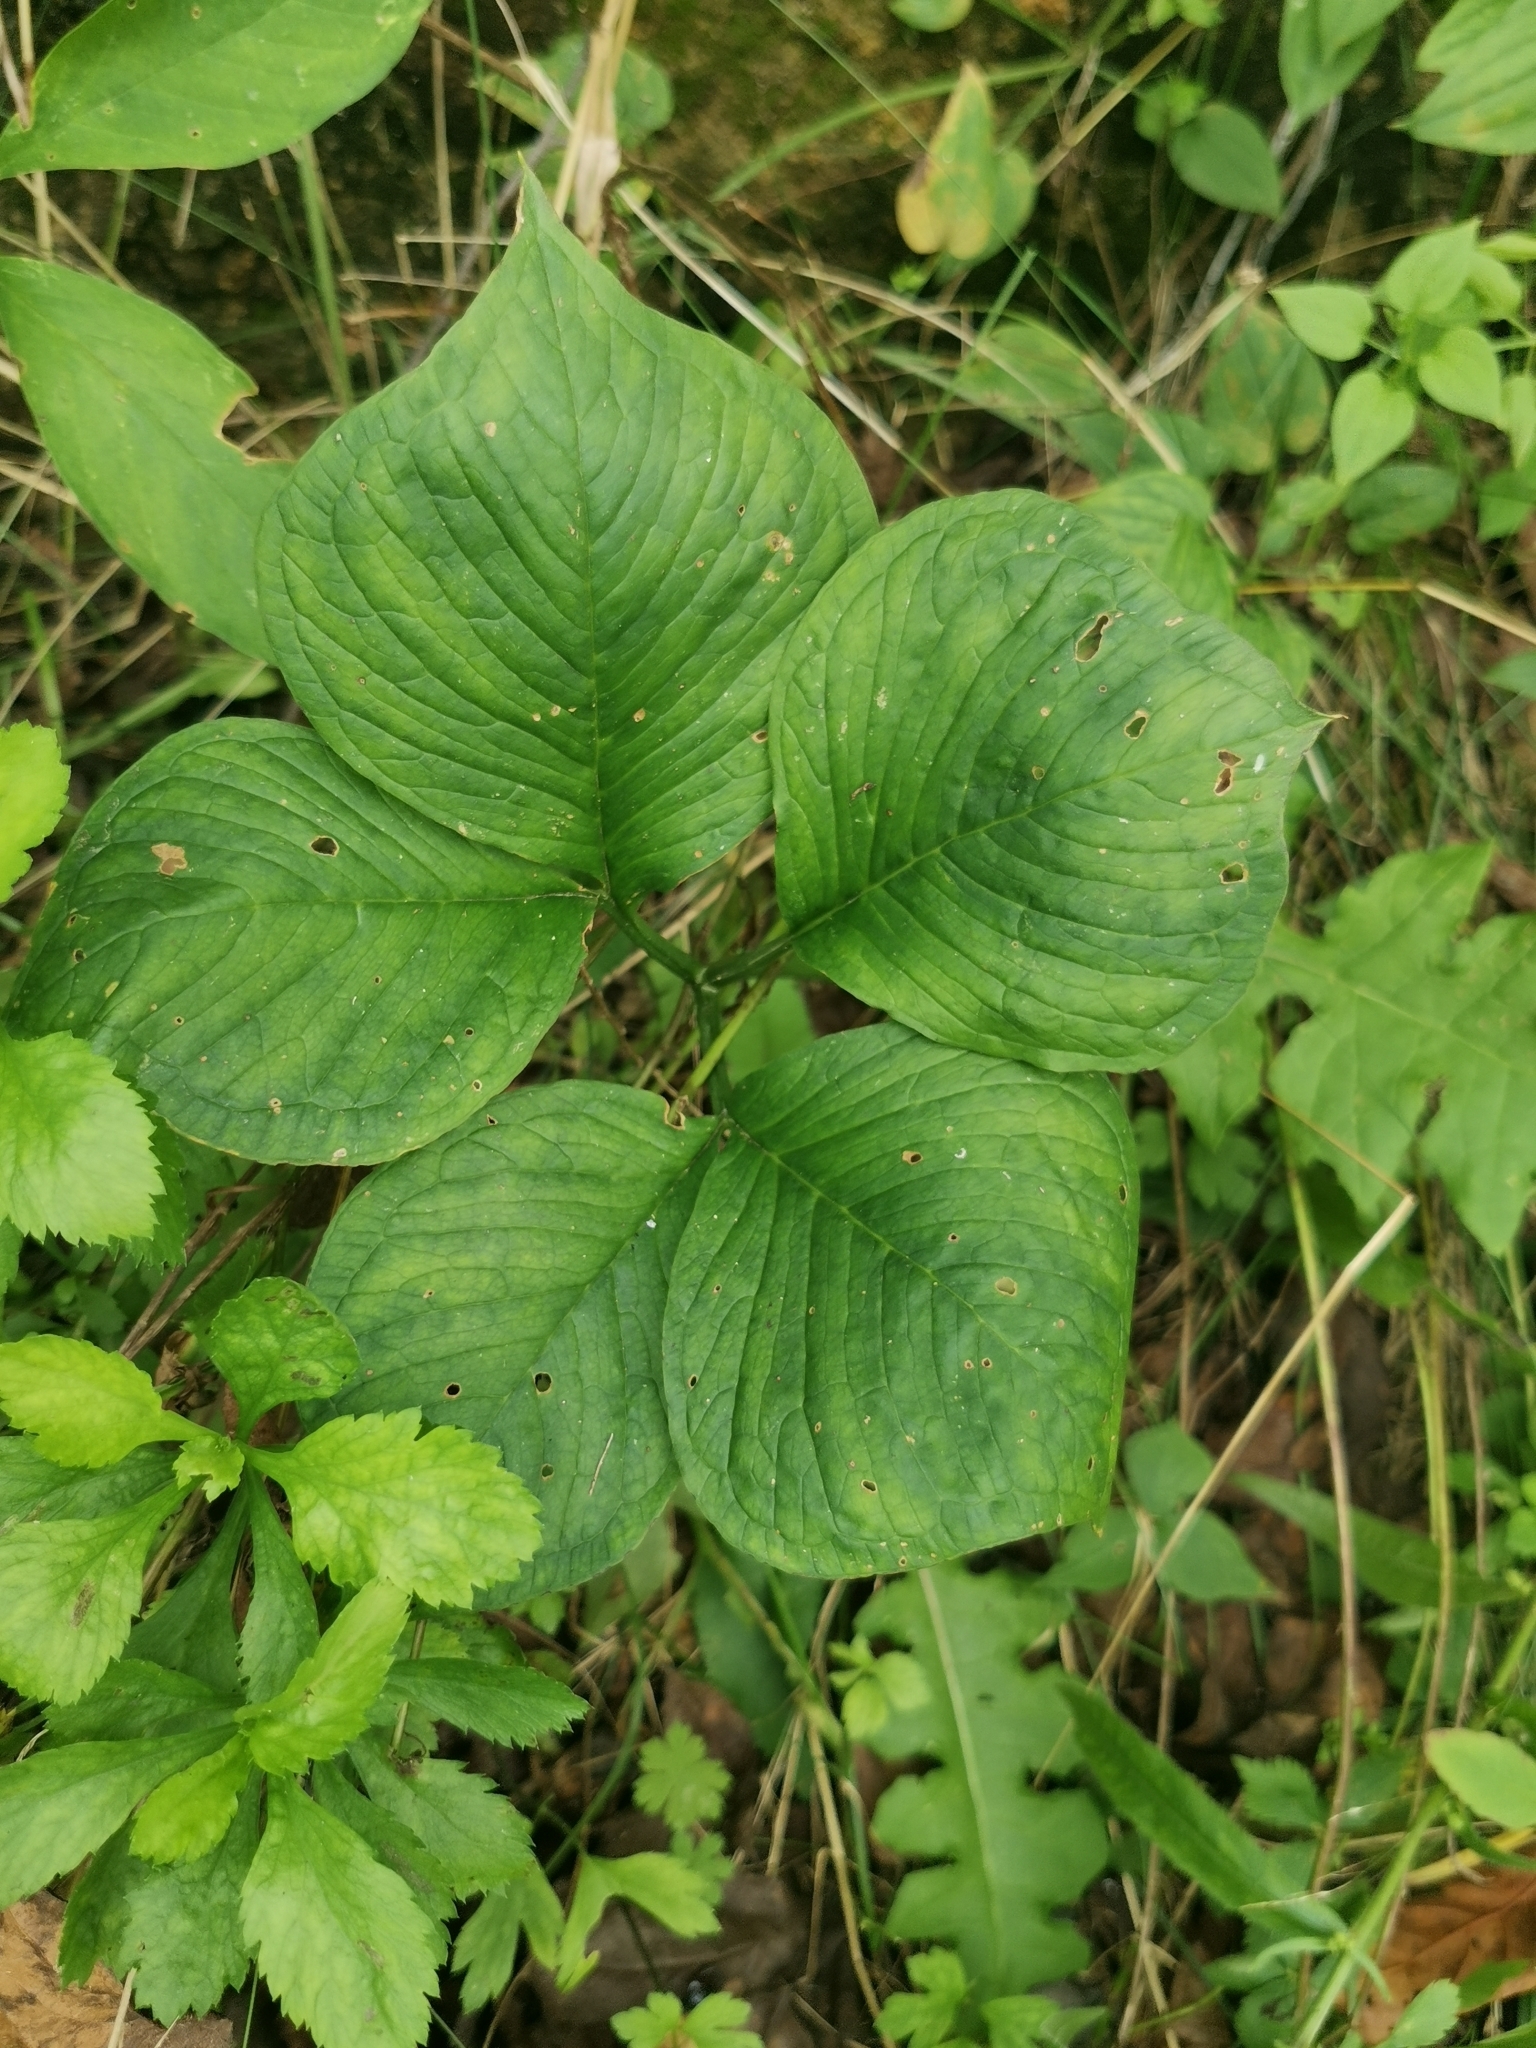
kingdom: Plantae
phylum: Tracheophyta
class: Liliopsida
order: Alismatales
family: Araceae
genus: Arisaema
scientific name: Arisaema amurense
